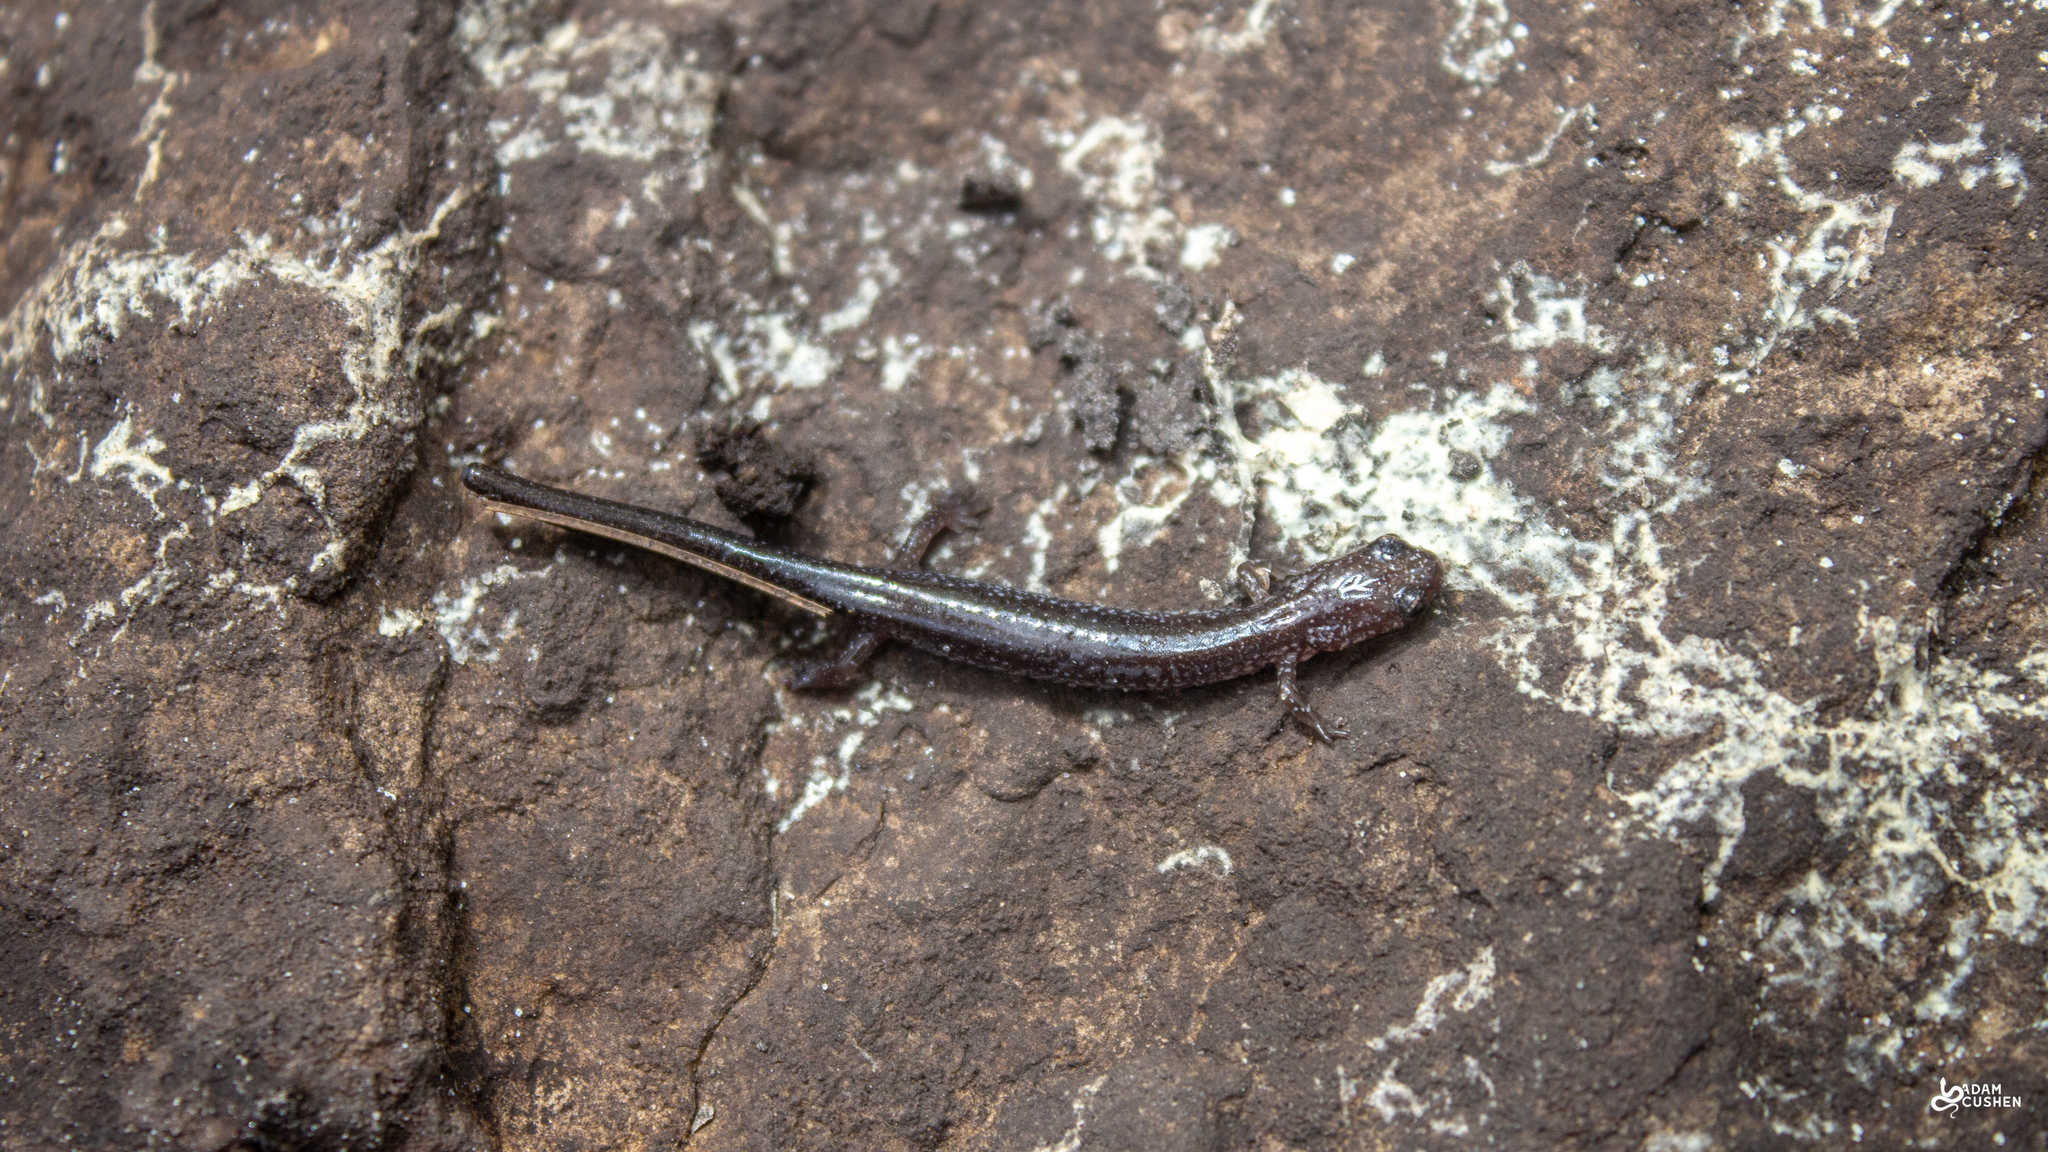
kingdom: Animalia
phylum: Chordata
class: Amphibia
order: Caudata
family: Plethodontidae
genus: Plethodon
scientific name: Plethodon cinereus
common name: Redback salamander
